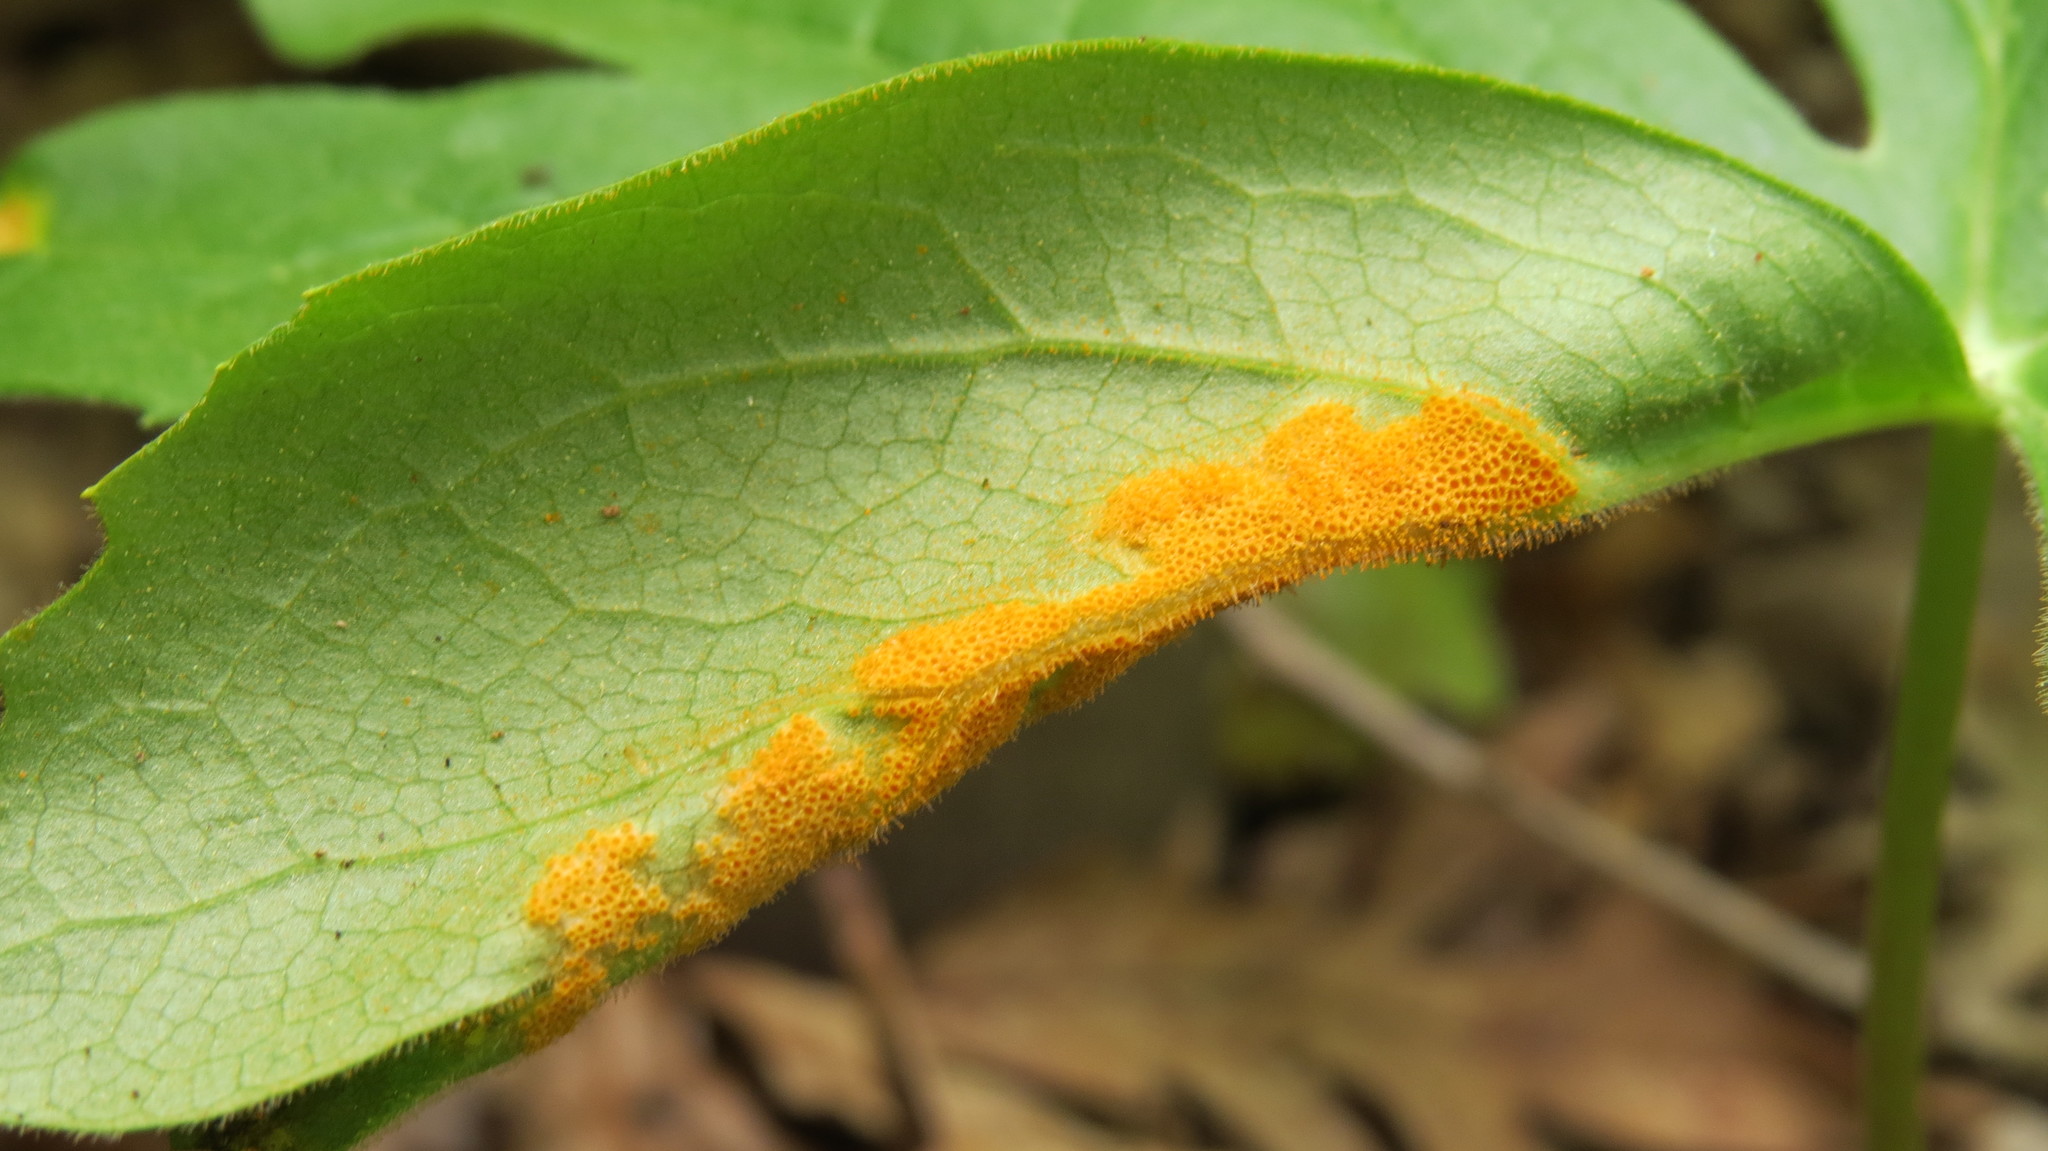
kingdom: Fungi
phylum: Basidiomycota
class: Pucciniomycetes
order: Pucciniales
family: Pucciniaceae
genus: Puccinia
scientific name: Puccinia podophylli
